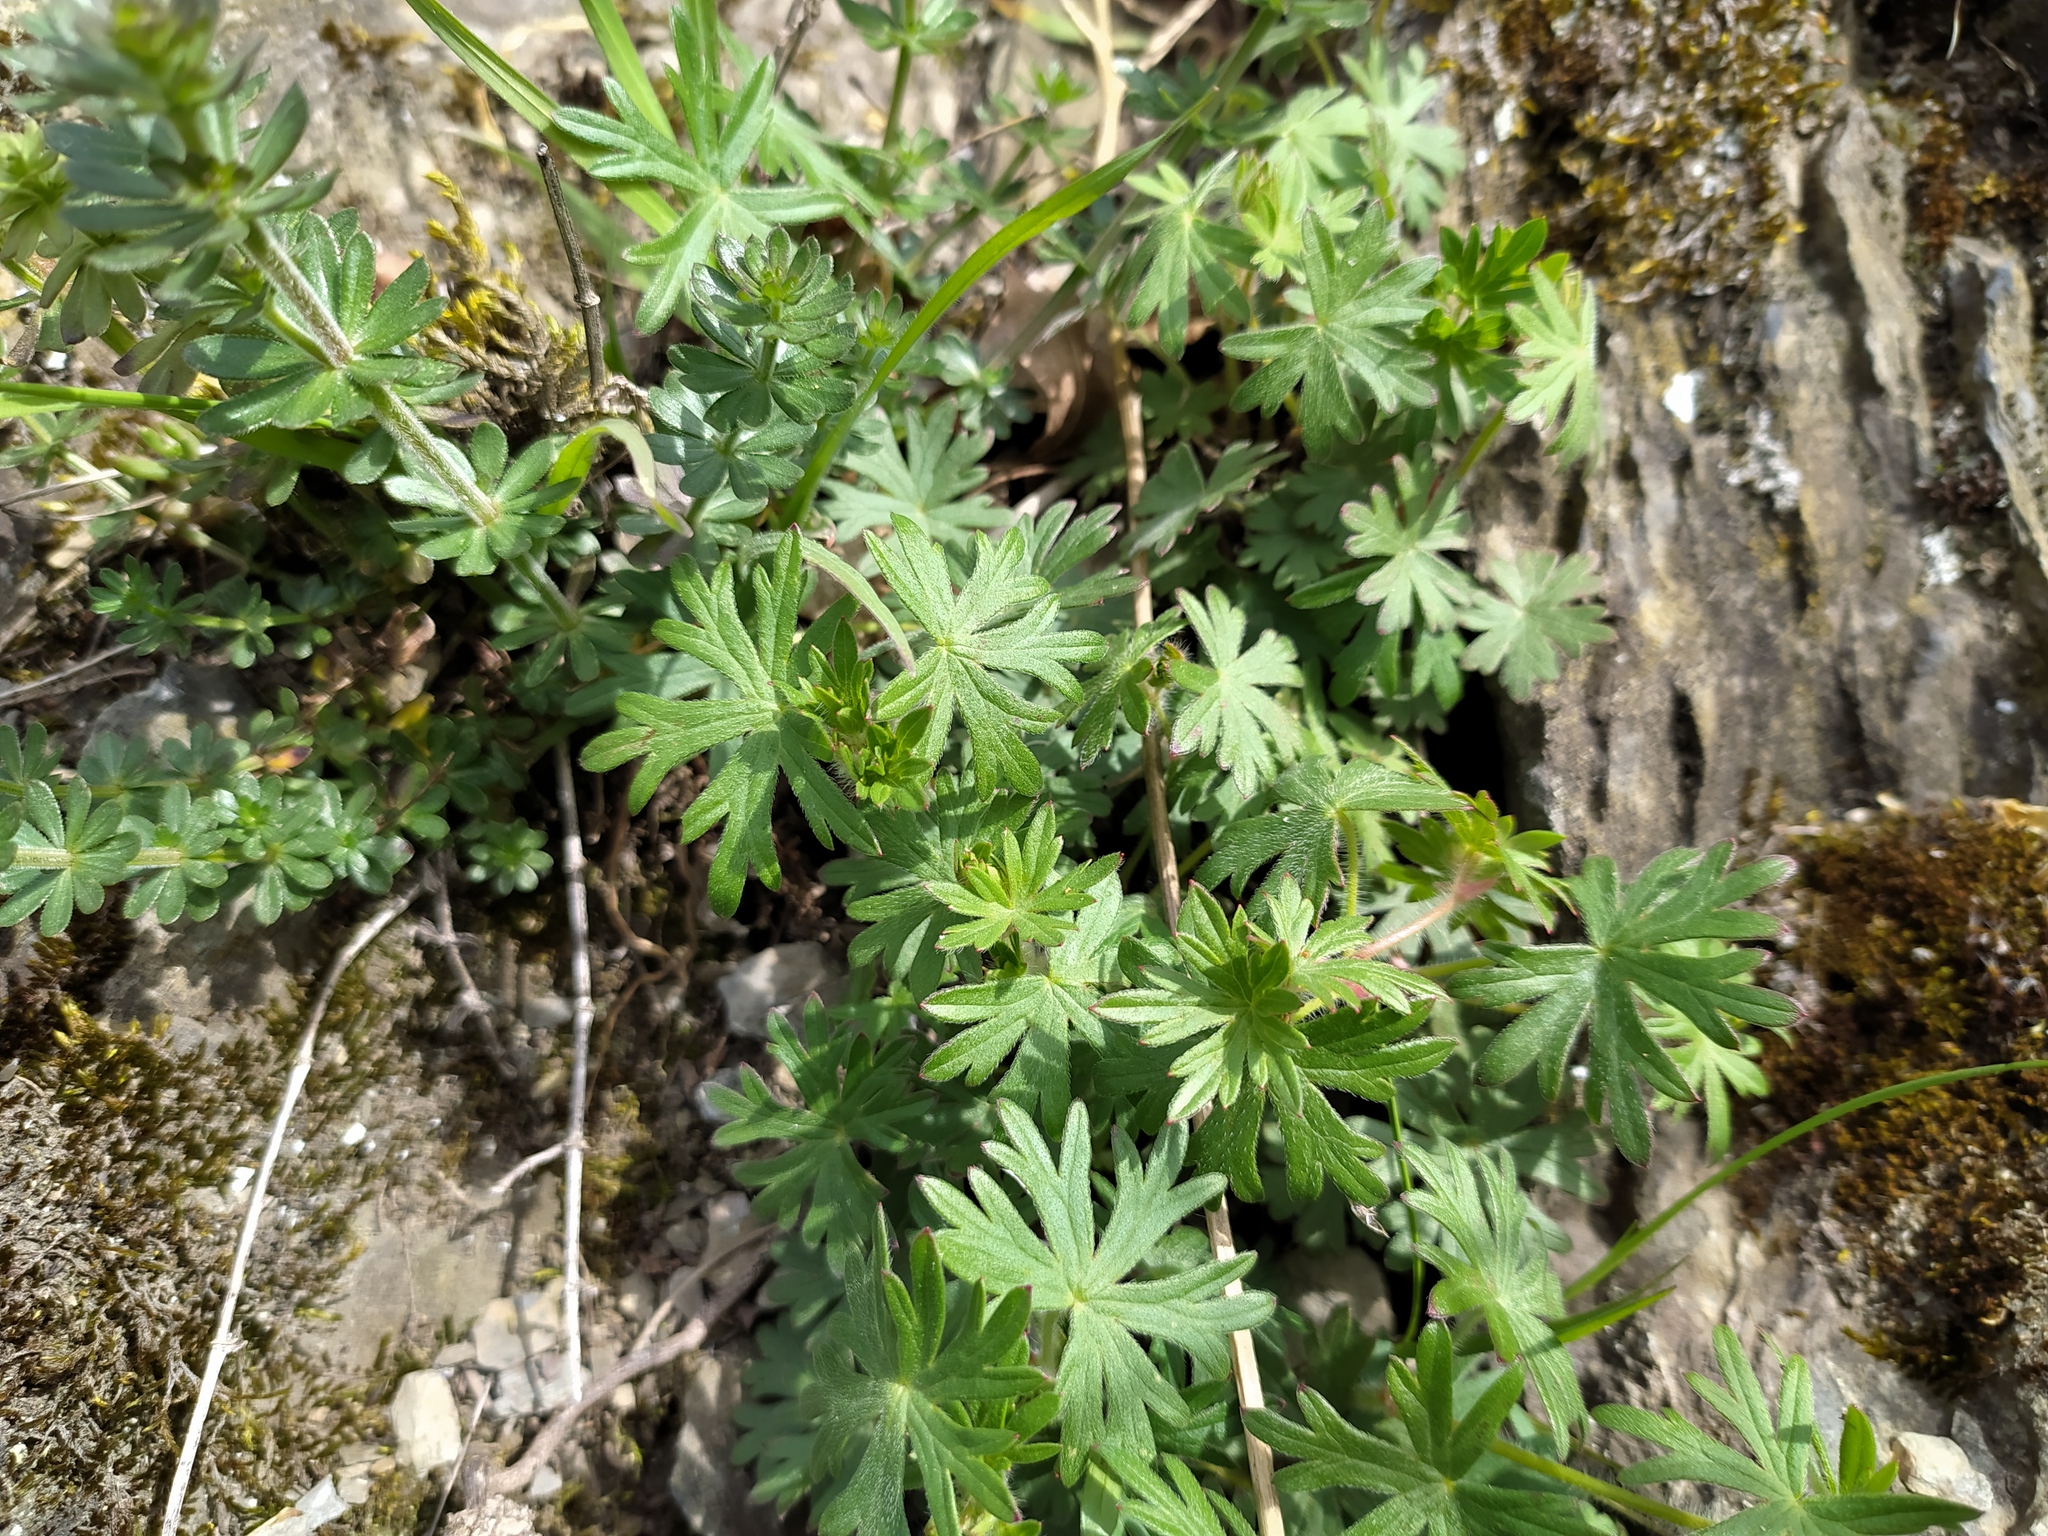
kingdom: Plantae
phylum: Tracheophyta
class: Magnoliopsida
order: Geraniales
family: Geraniaceae
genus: Geranium
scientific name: Geranium sanguineum
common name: Bloody crane's-bill
